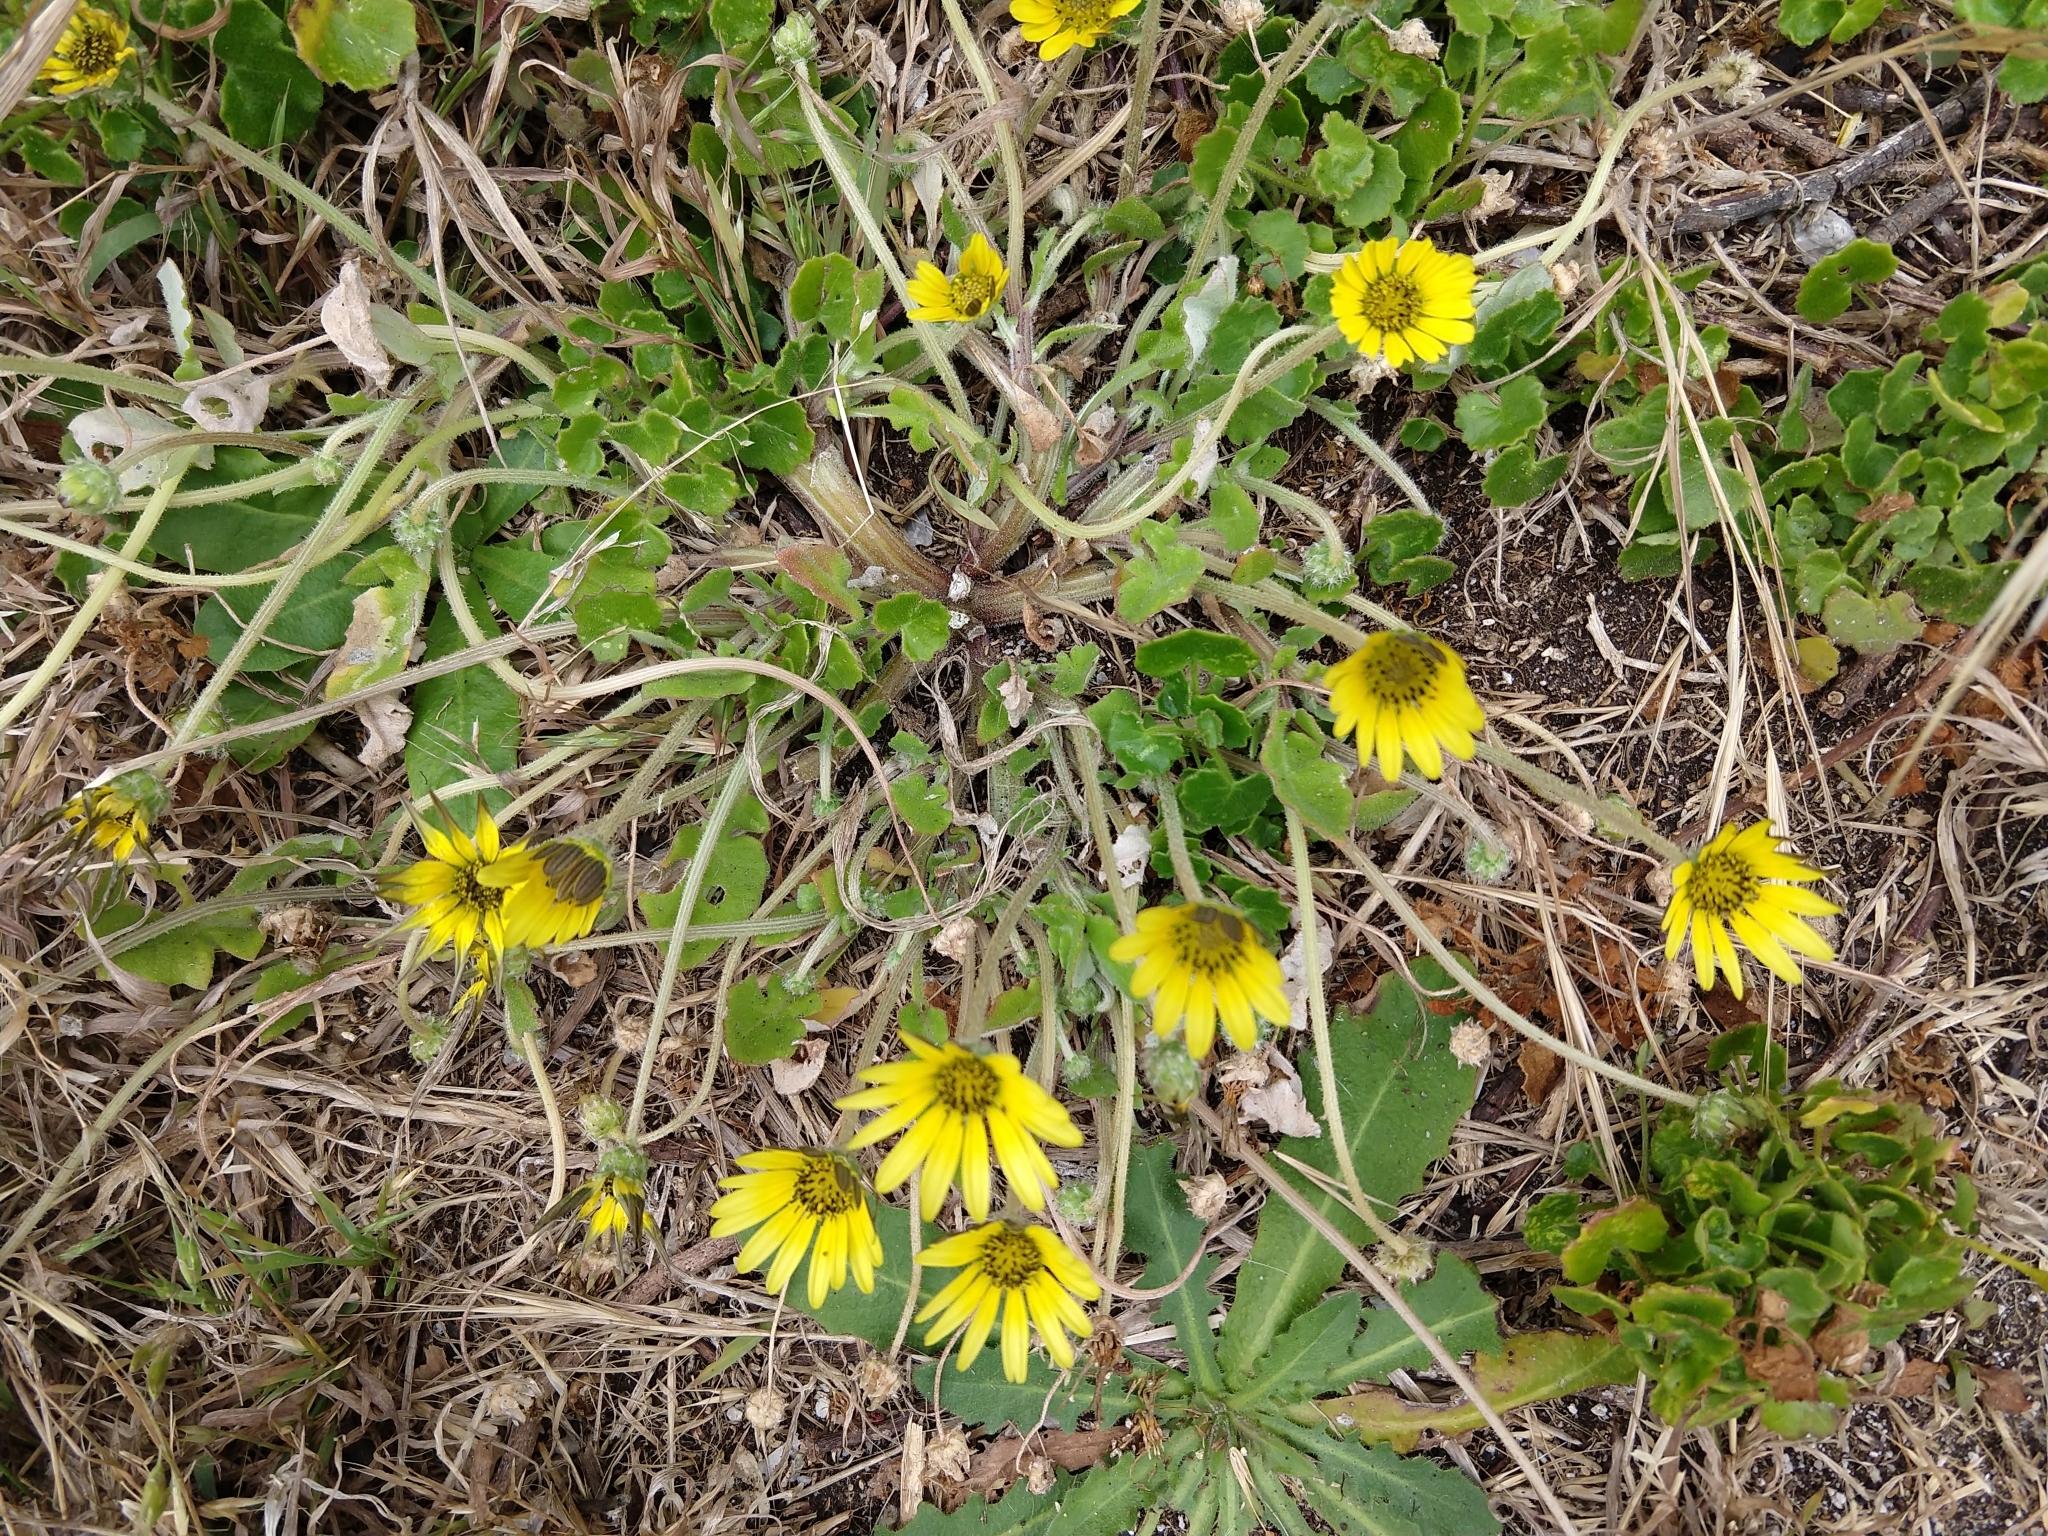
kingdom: Plantae
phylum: Tracheophyta
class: Magnoliopsida
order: Asterales
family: Asteraceae
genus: Arctotheca
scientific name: Arctotheca calendula
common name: Capeweed
